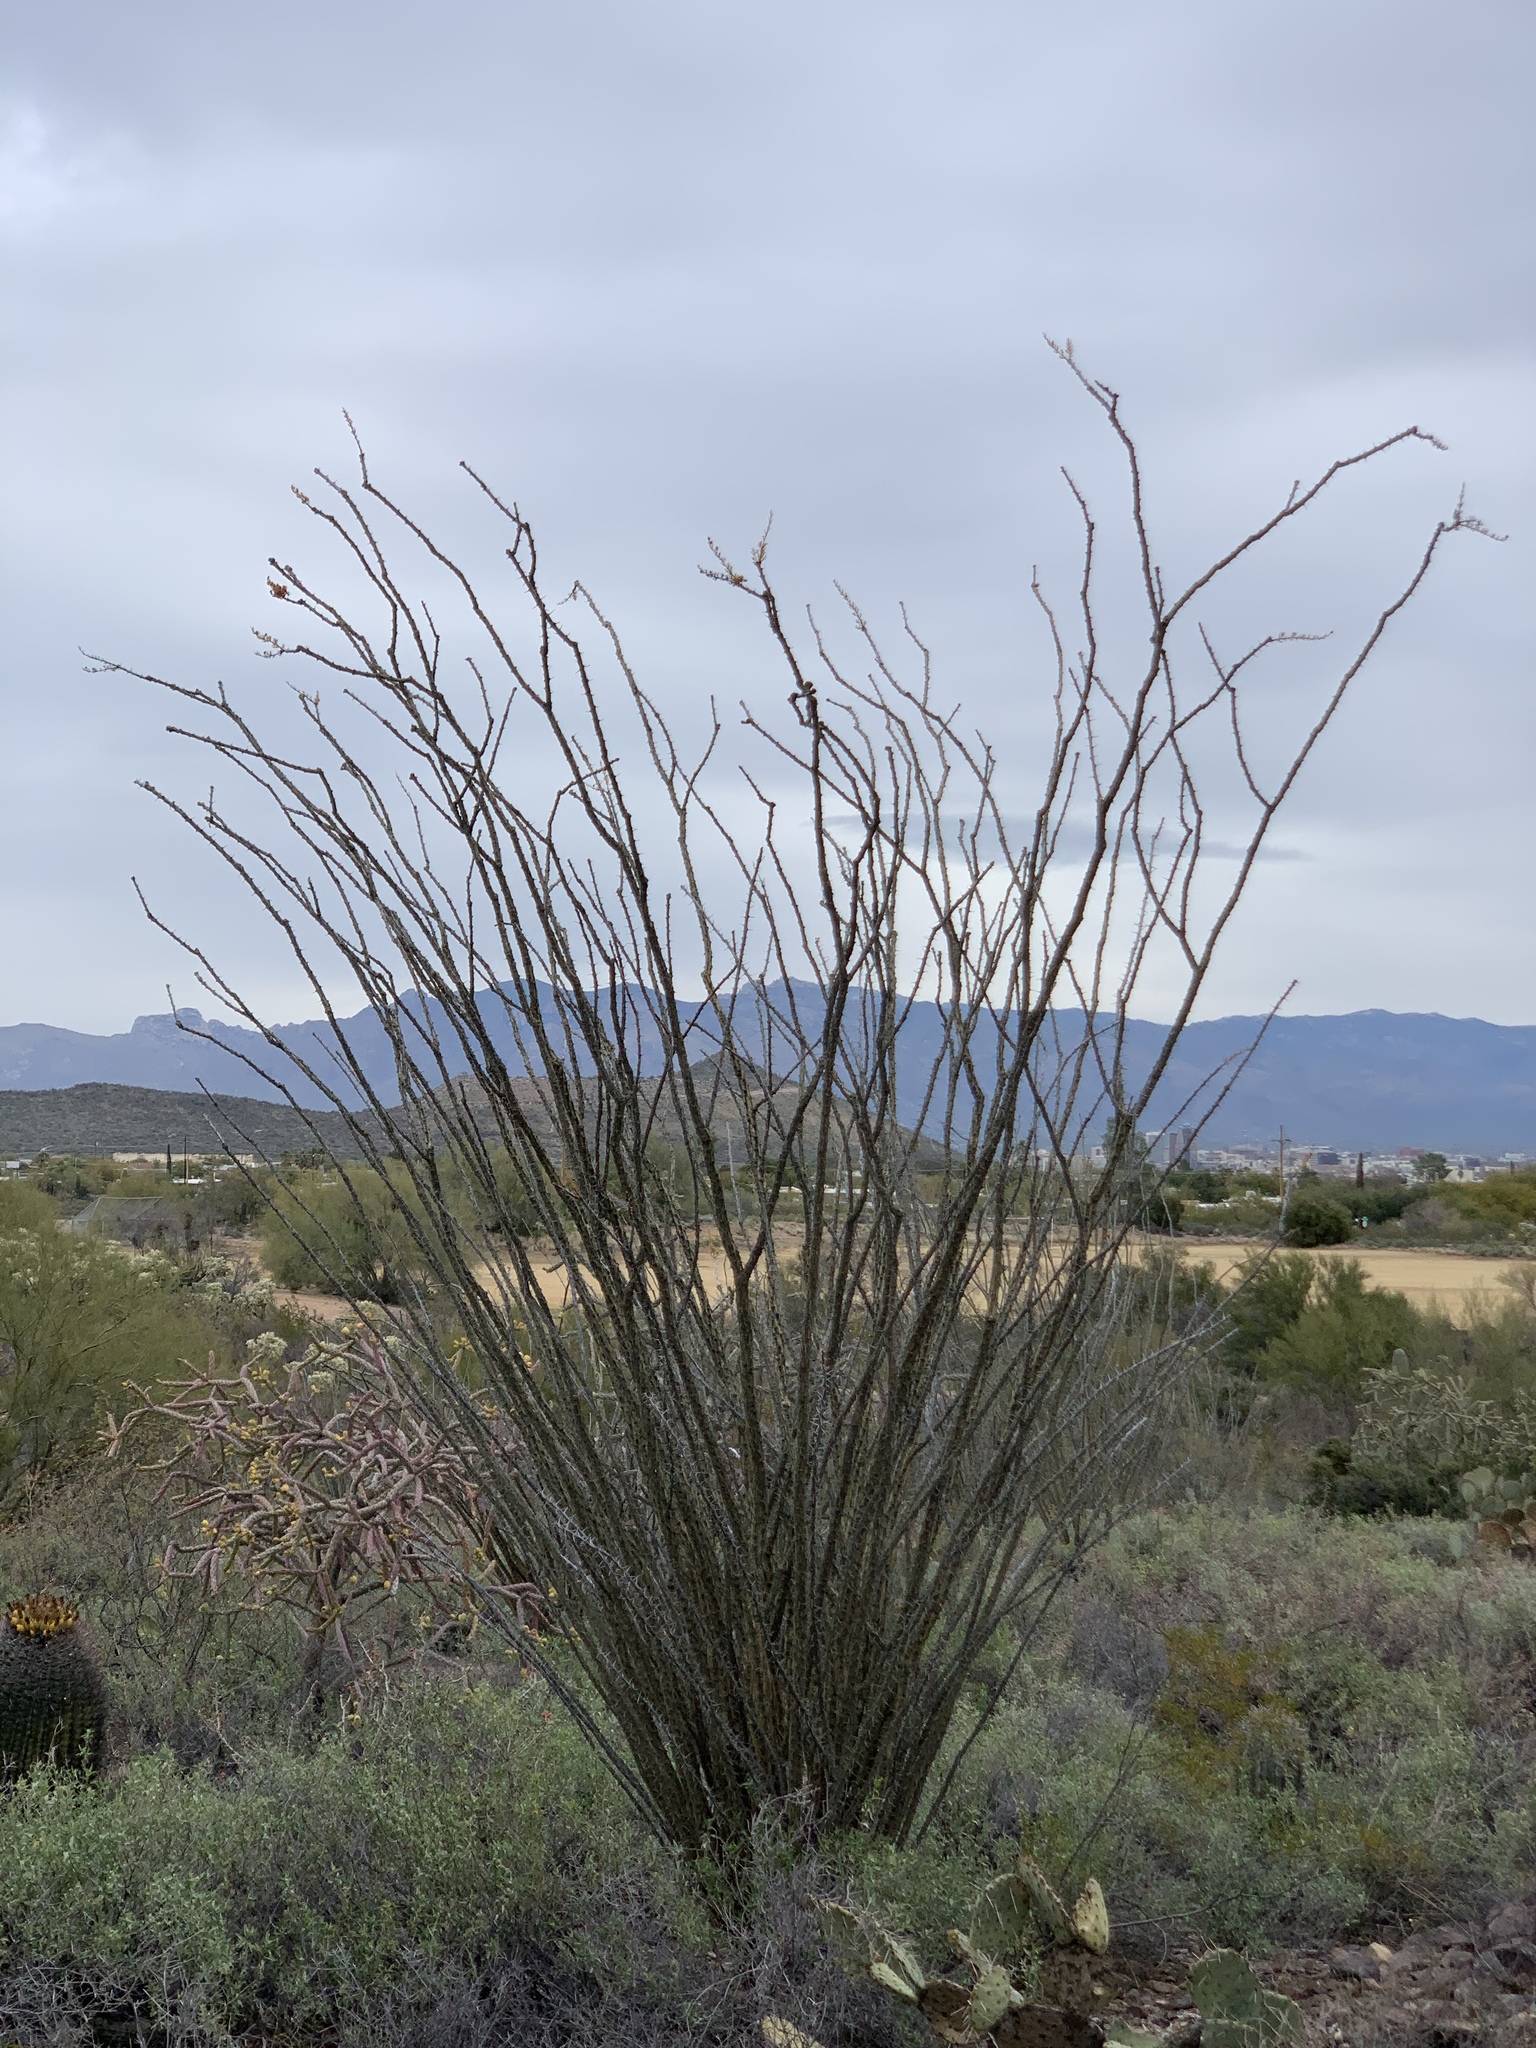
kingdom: Plantae
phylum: Tracheophyta
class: Magnoliopsida
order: Ericales
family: Fouquieriaceae
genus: Fouquieria
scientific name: Fouquieria splendens
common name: Vine-cactus
